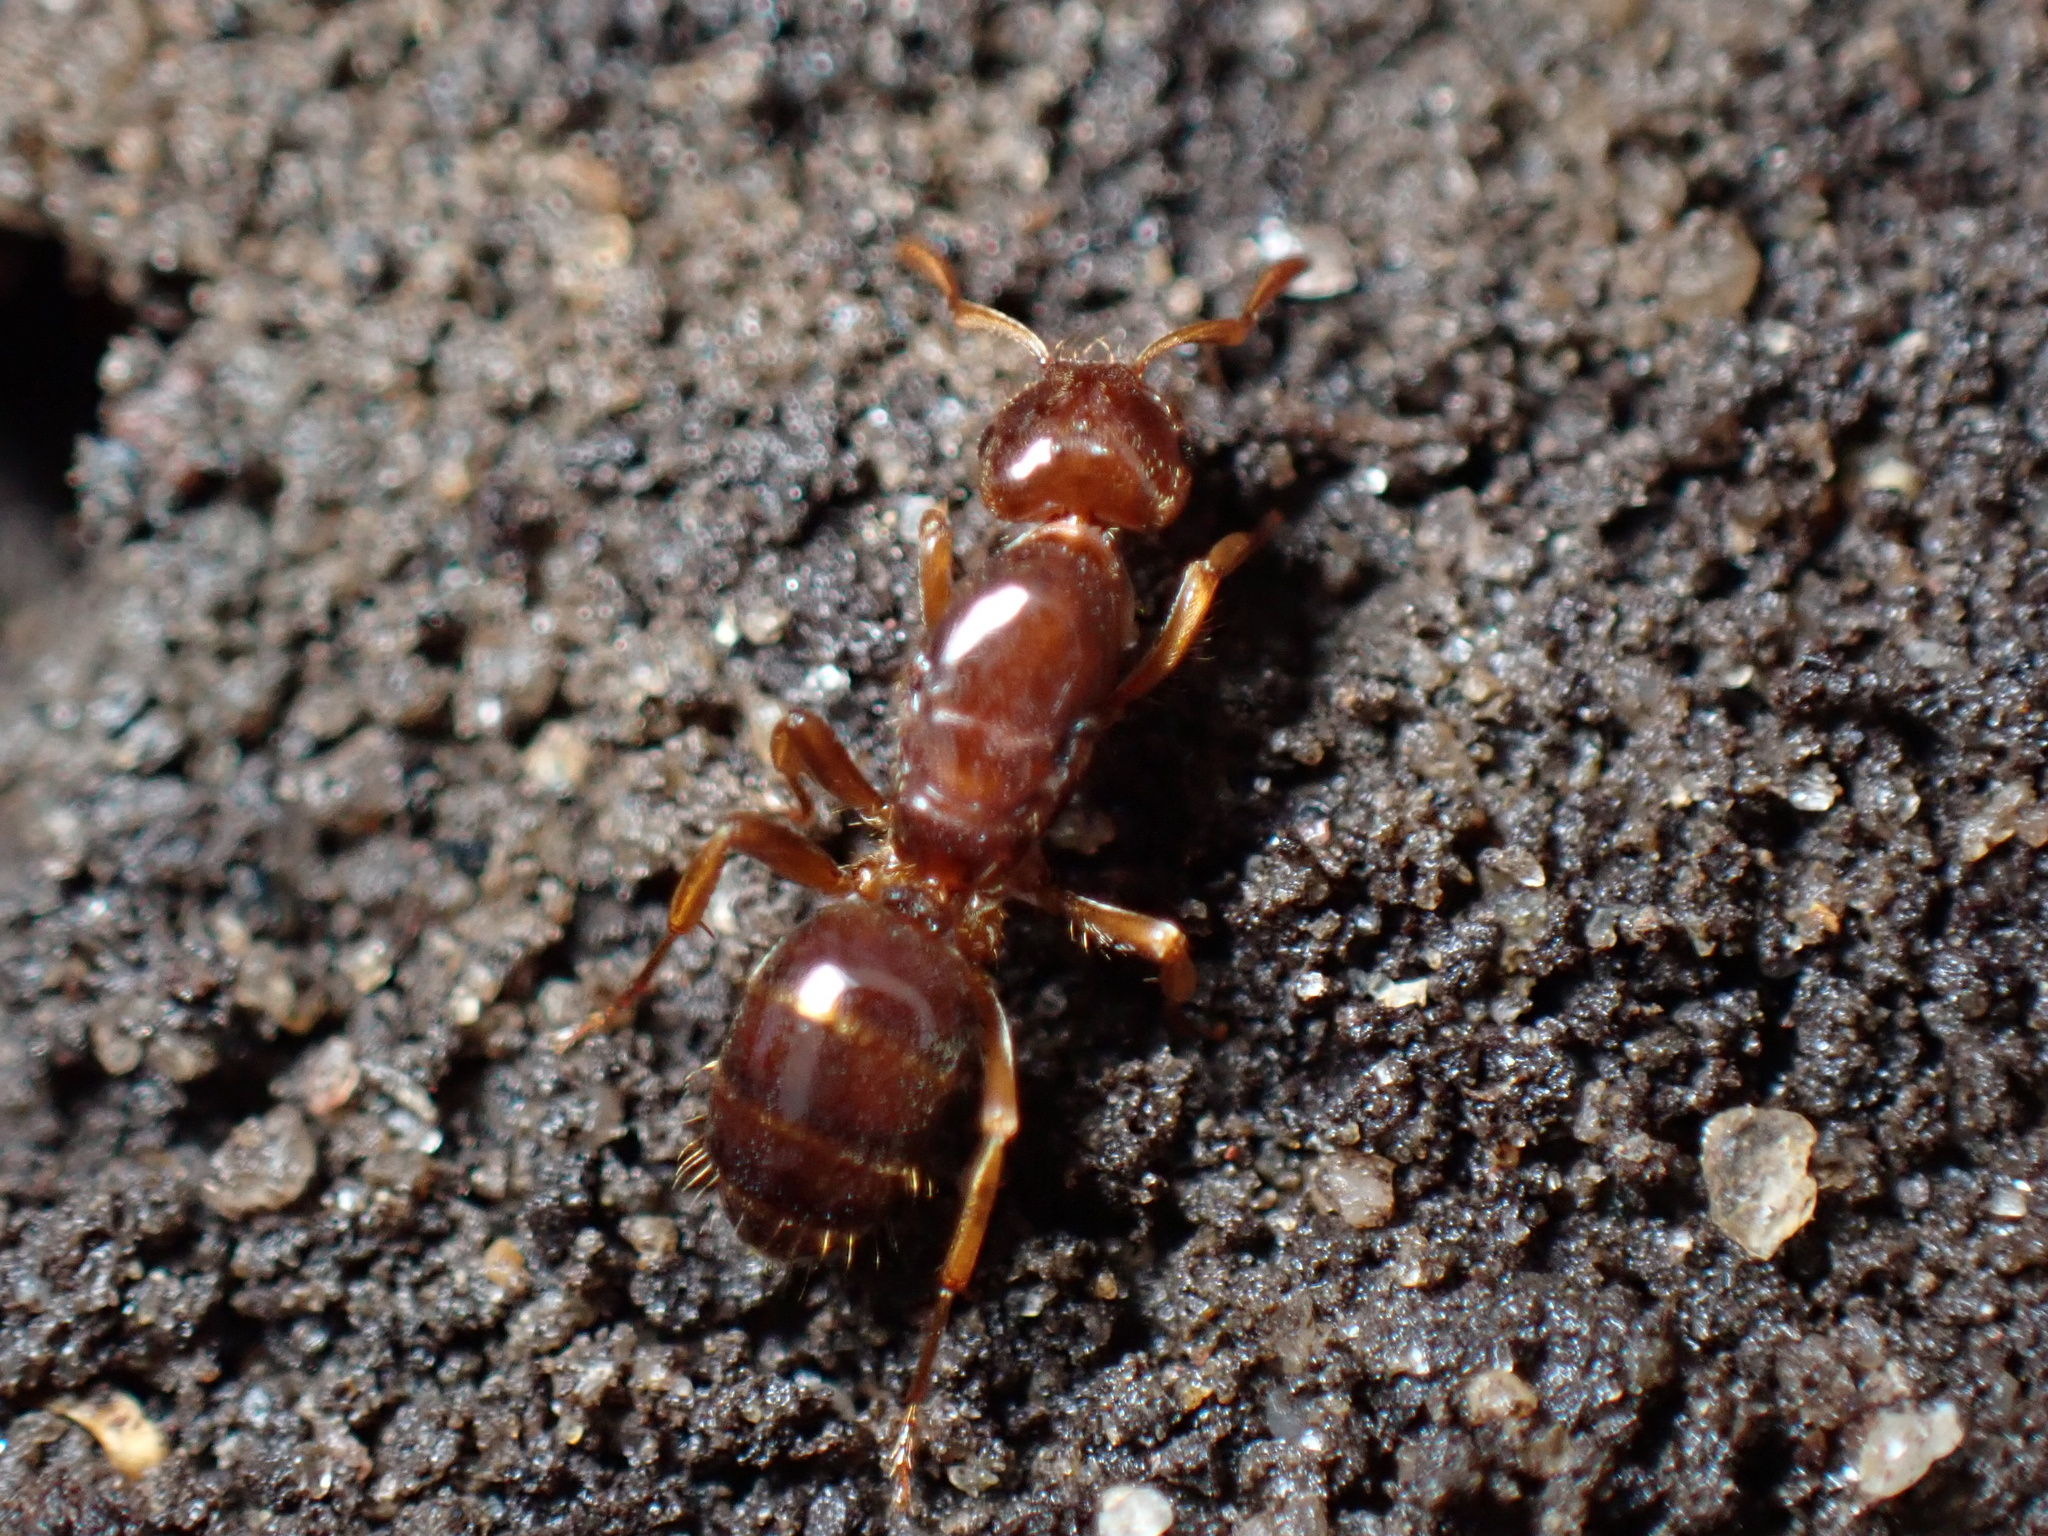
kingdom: Animalia
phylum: Arthropoda
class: Insecta
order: Hymenoptera
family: Formicidae
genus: Lasius
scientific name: Lasius claviger
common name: Common citronella ant
